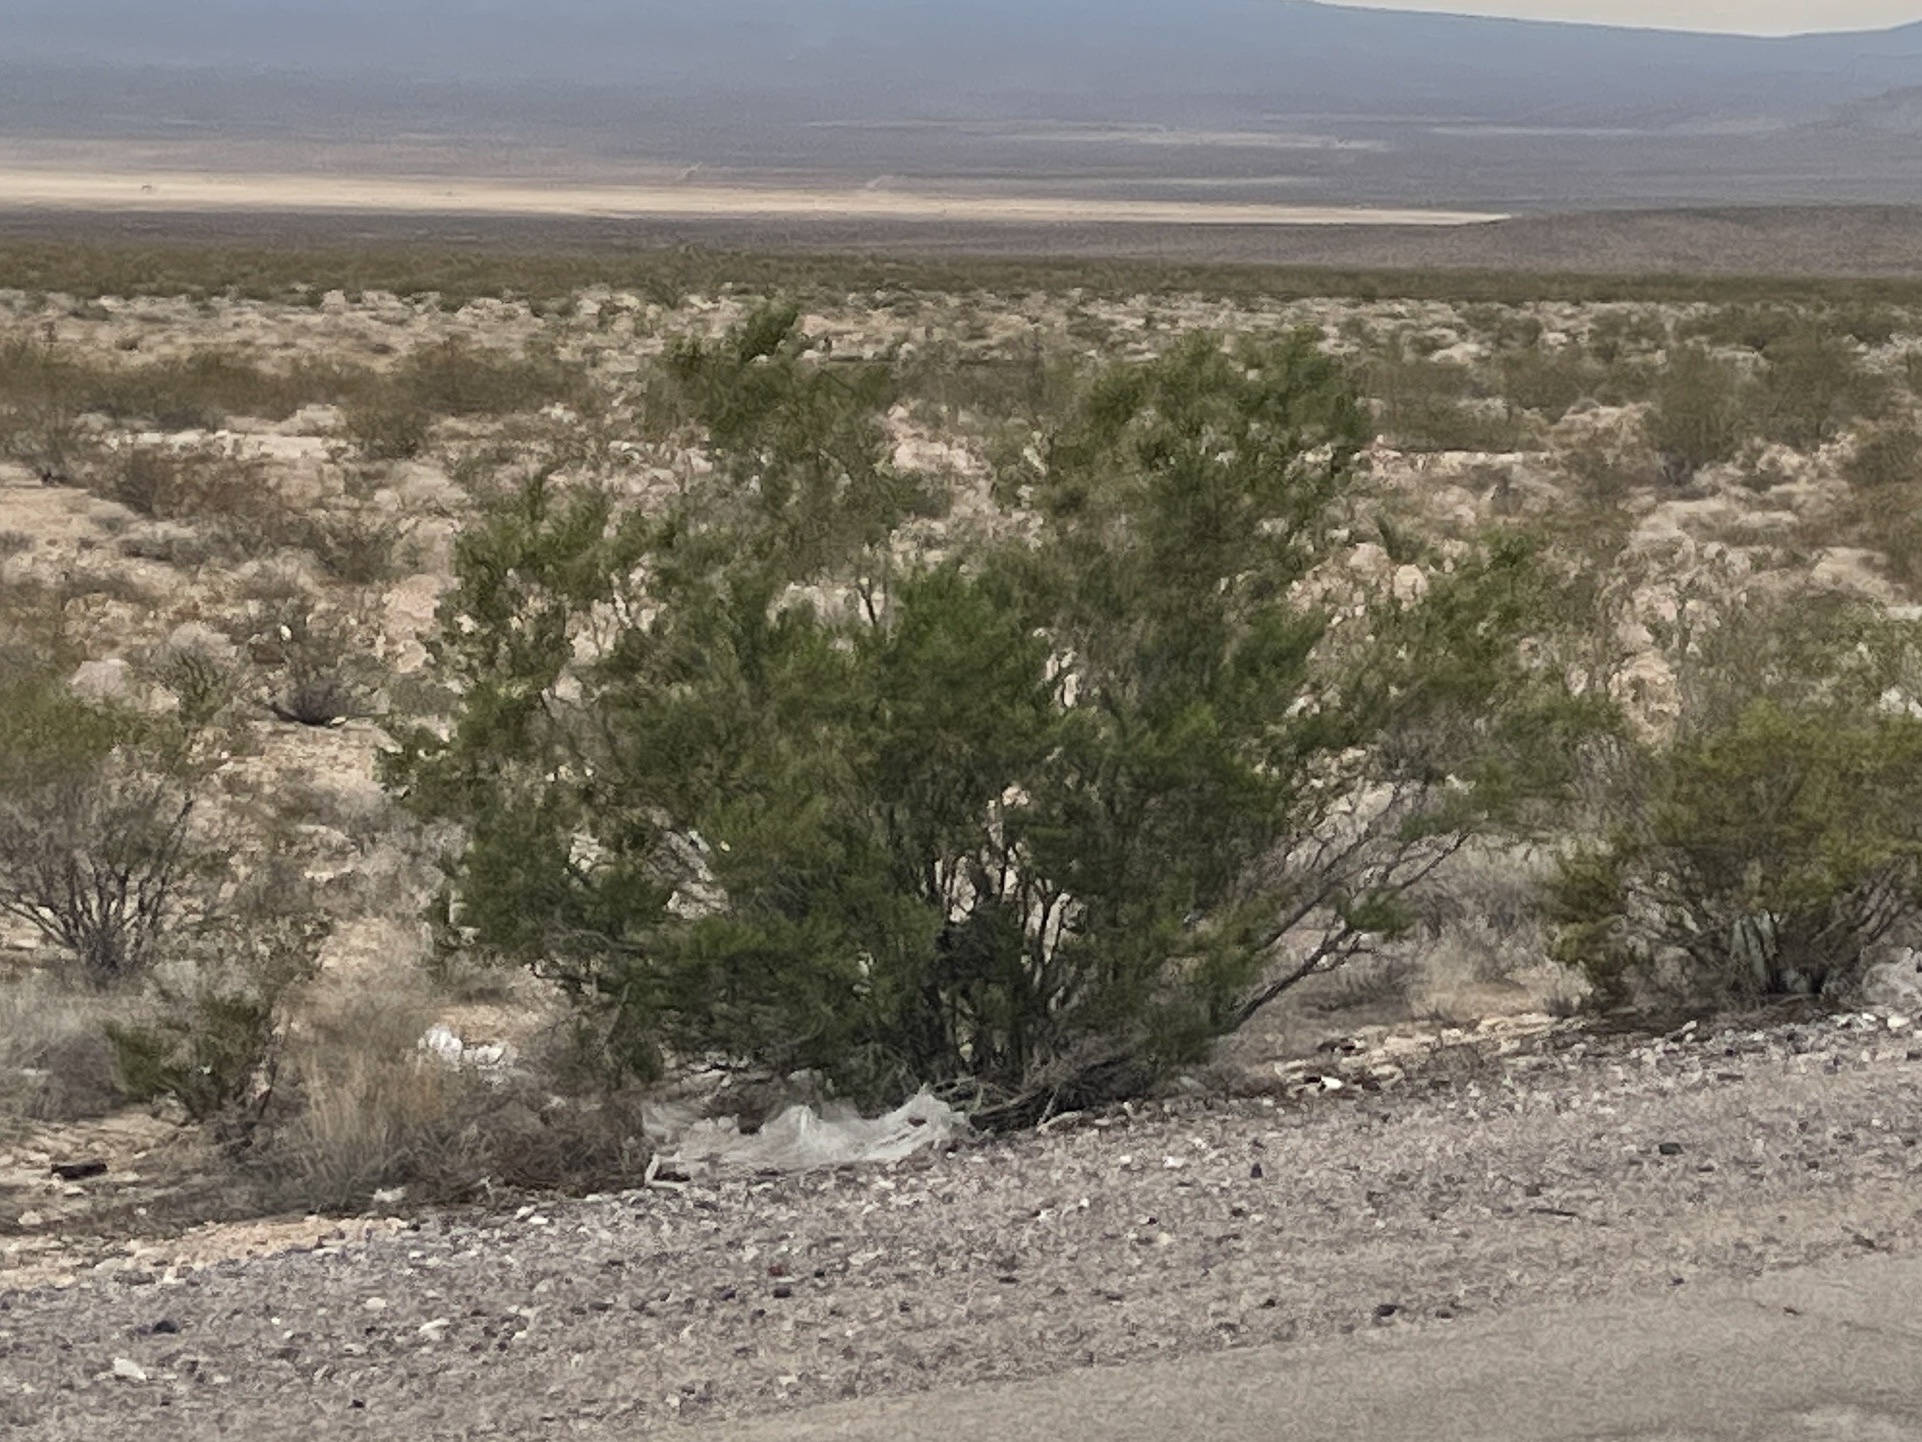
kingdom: Plantae
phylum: Tracheophyta
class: Magnoliopsida
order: Zygophyllales
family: Zygophyllaceae
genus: Larrea
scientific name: Larrea tridentata
